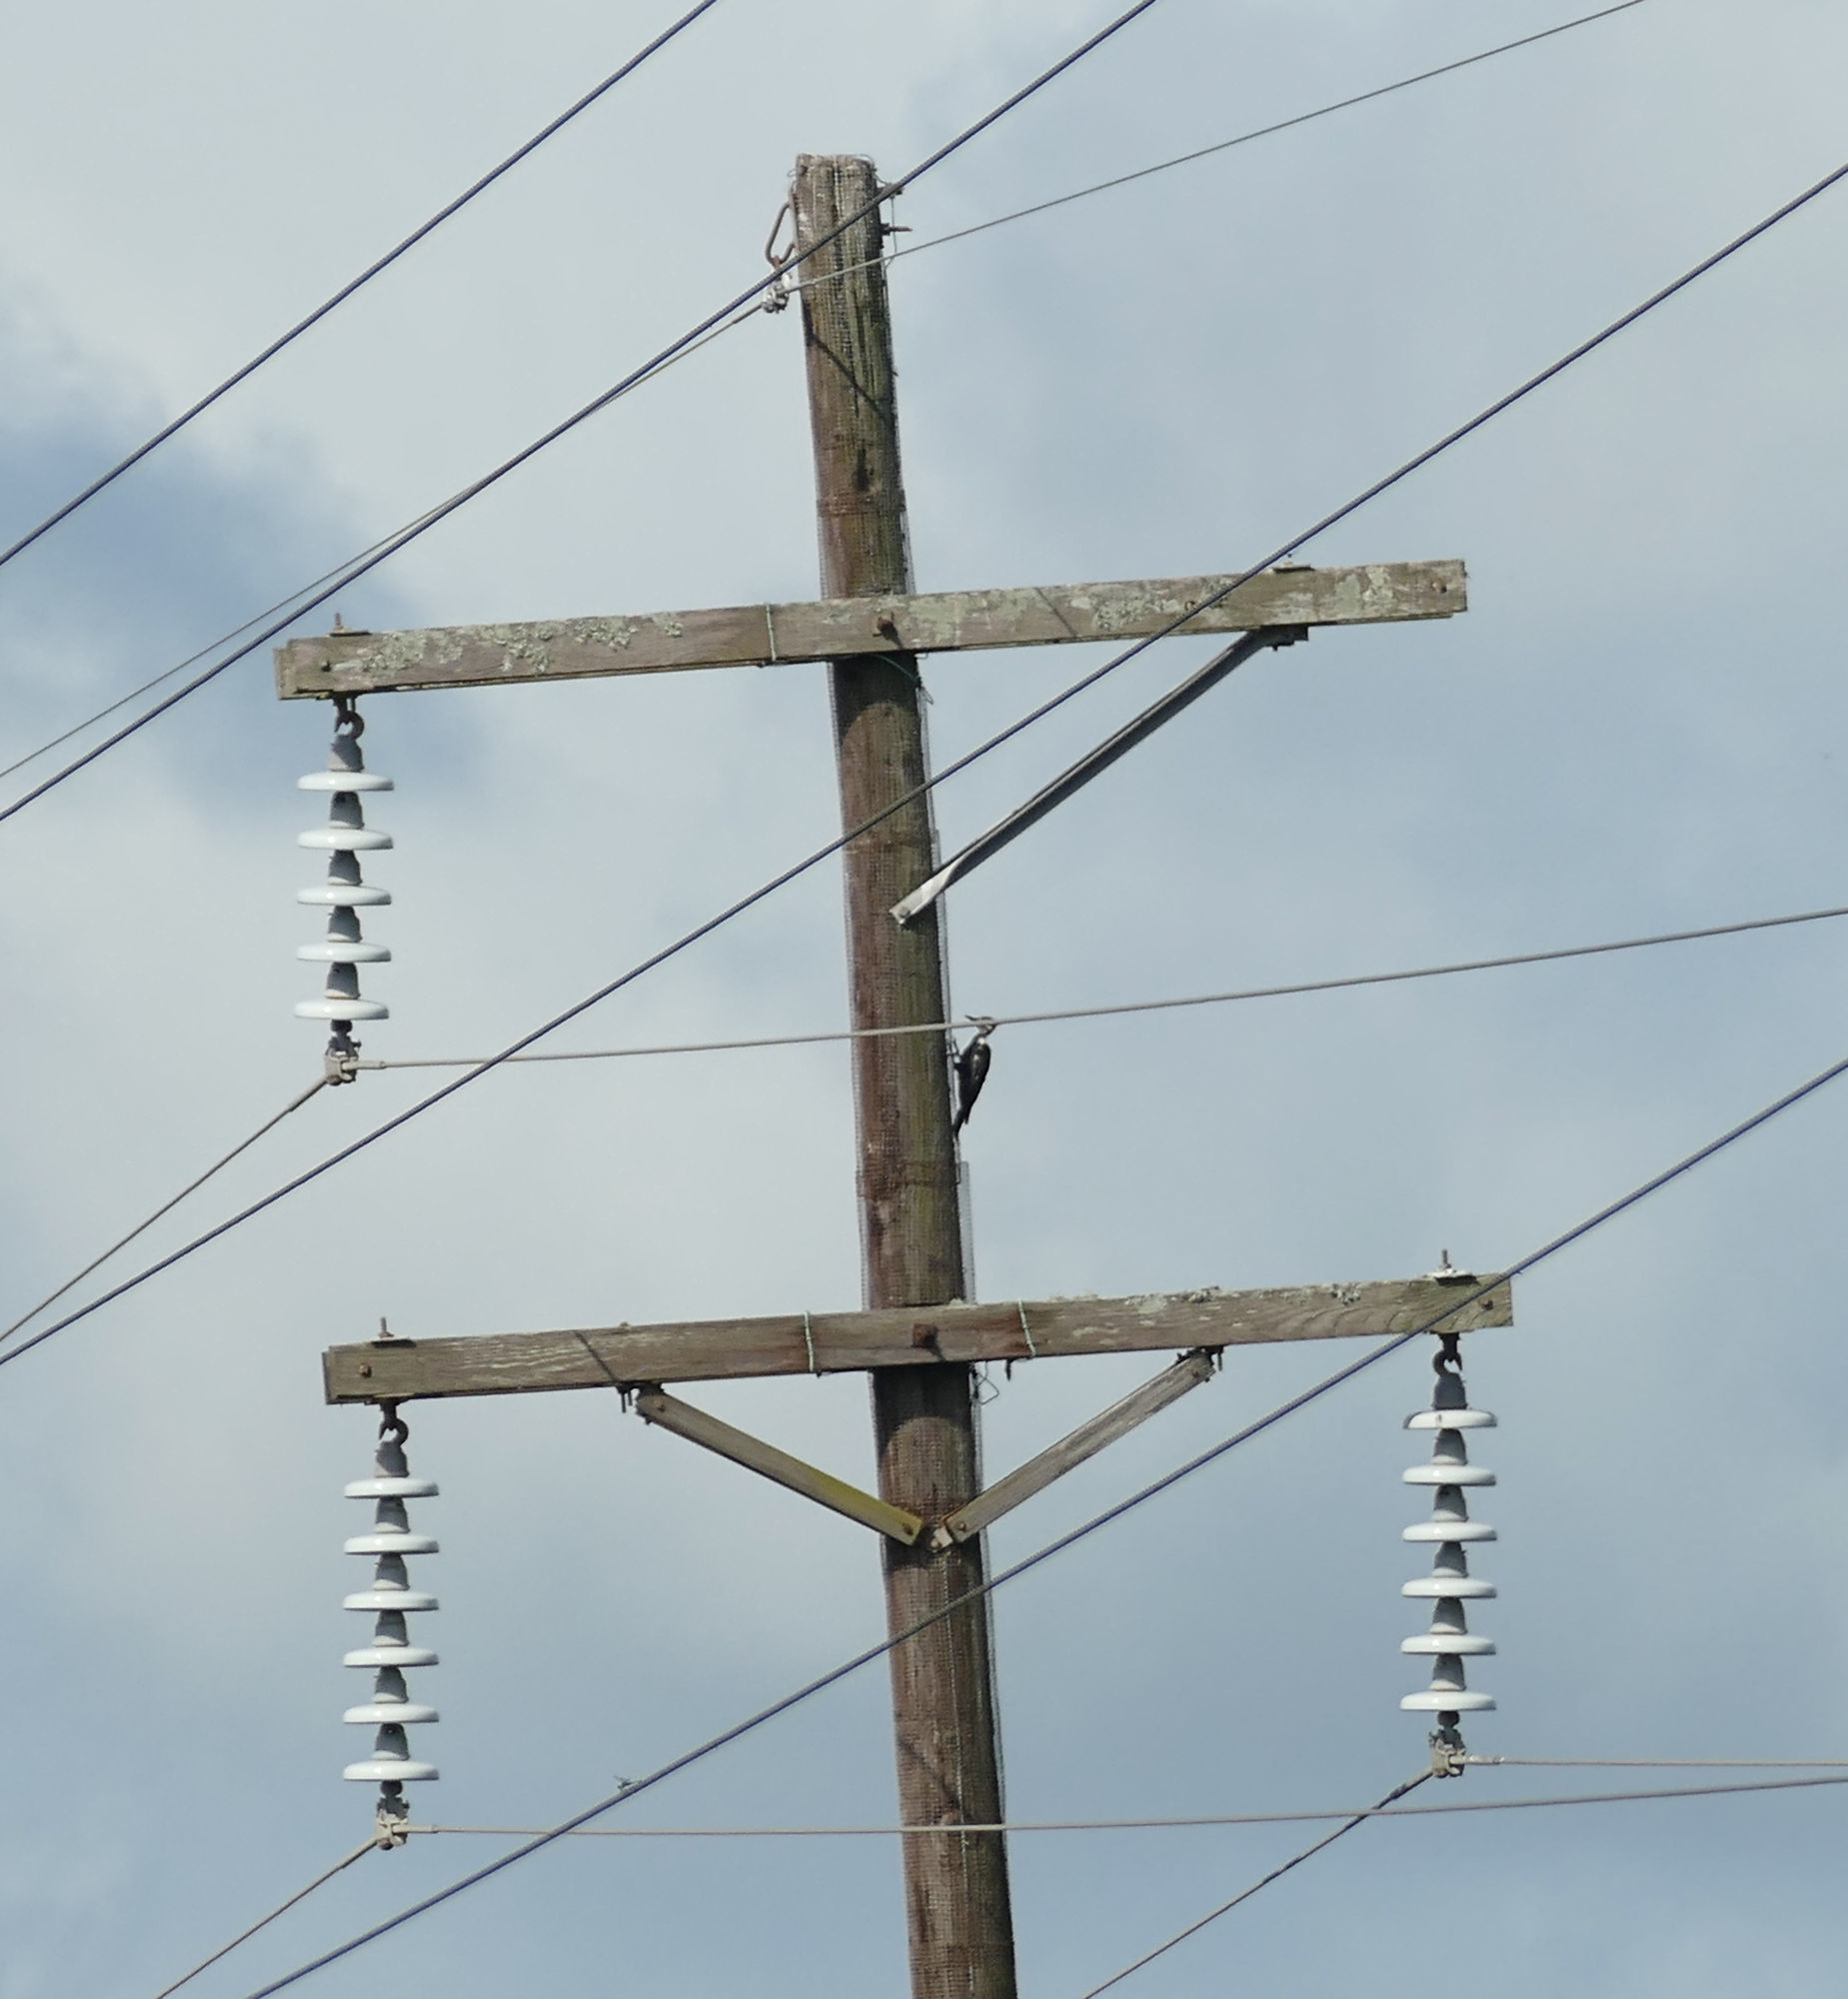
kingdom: Animalia
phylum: Chordata
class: Aves
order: Piciformes
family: Picidae
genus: Dryocopus
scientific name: Dryocopus pileatus
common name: Pileated woodpecker
